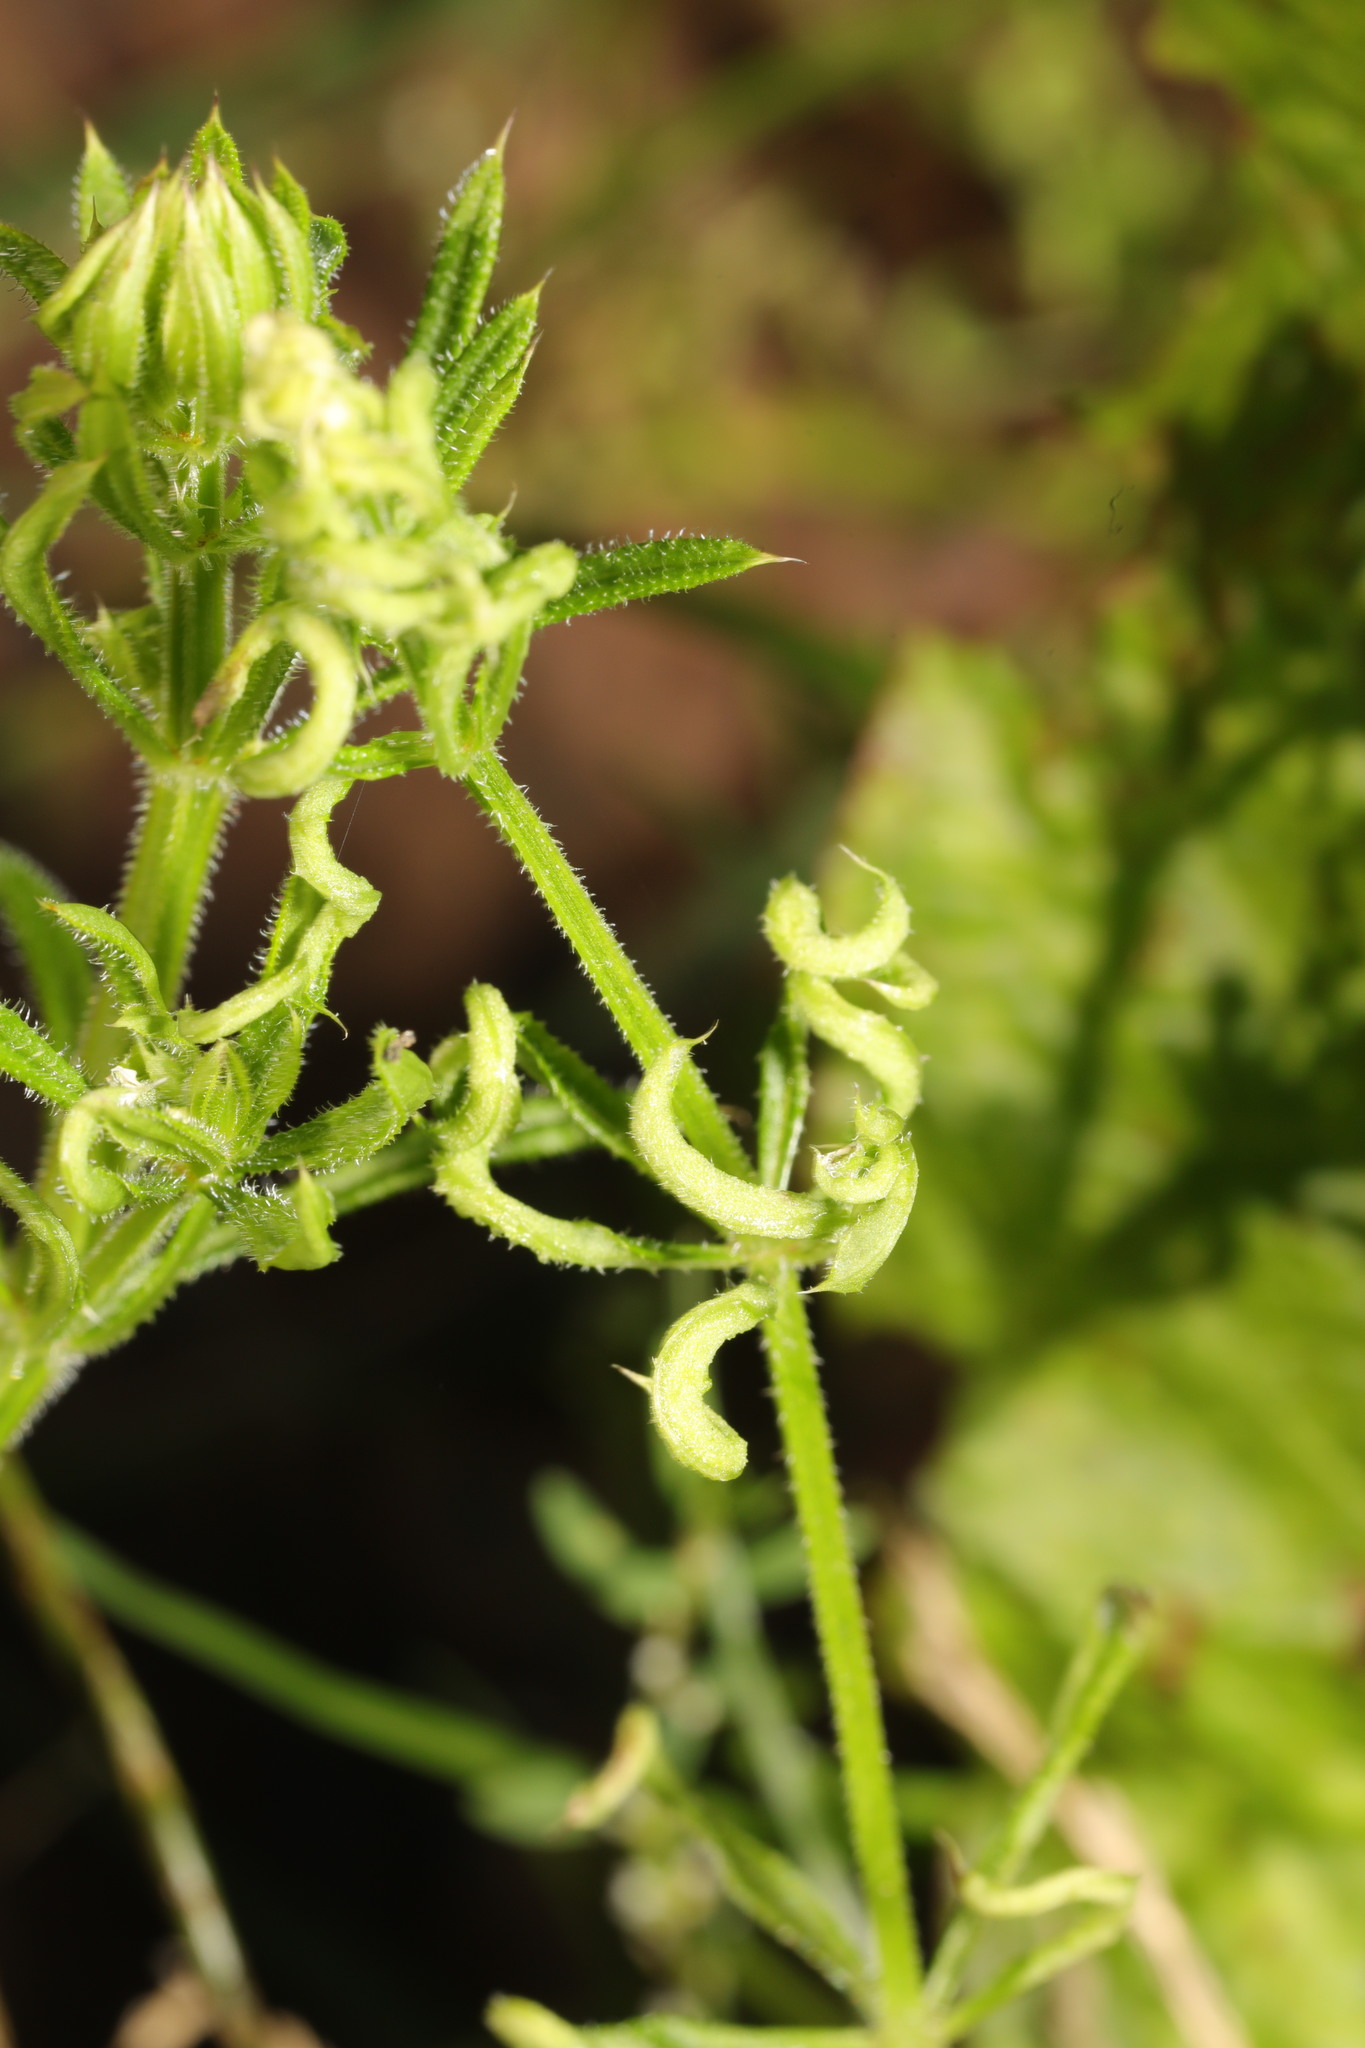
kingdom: Animalia
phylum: Arthropoda
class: Arachnida
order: Trombidiformes
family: Eriophyidae
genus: Cecidophyes
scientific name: Cecidophyes rouhollahi
